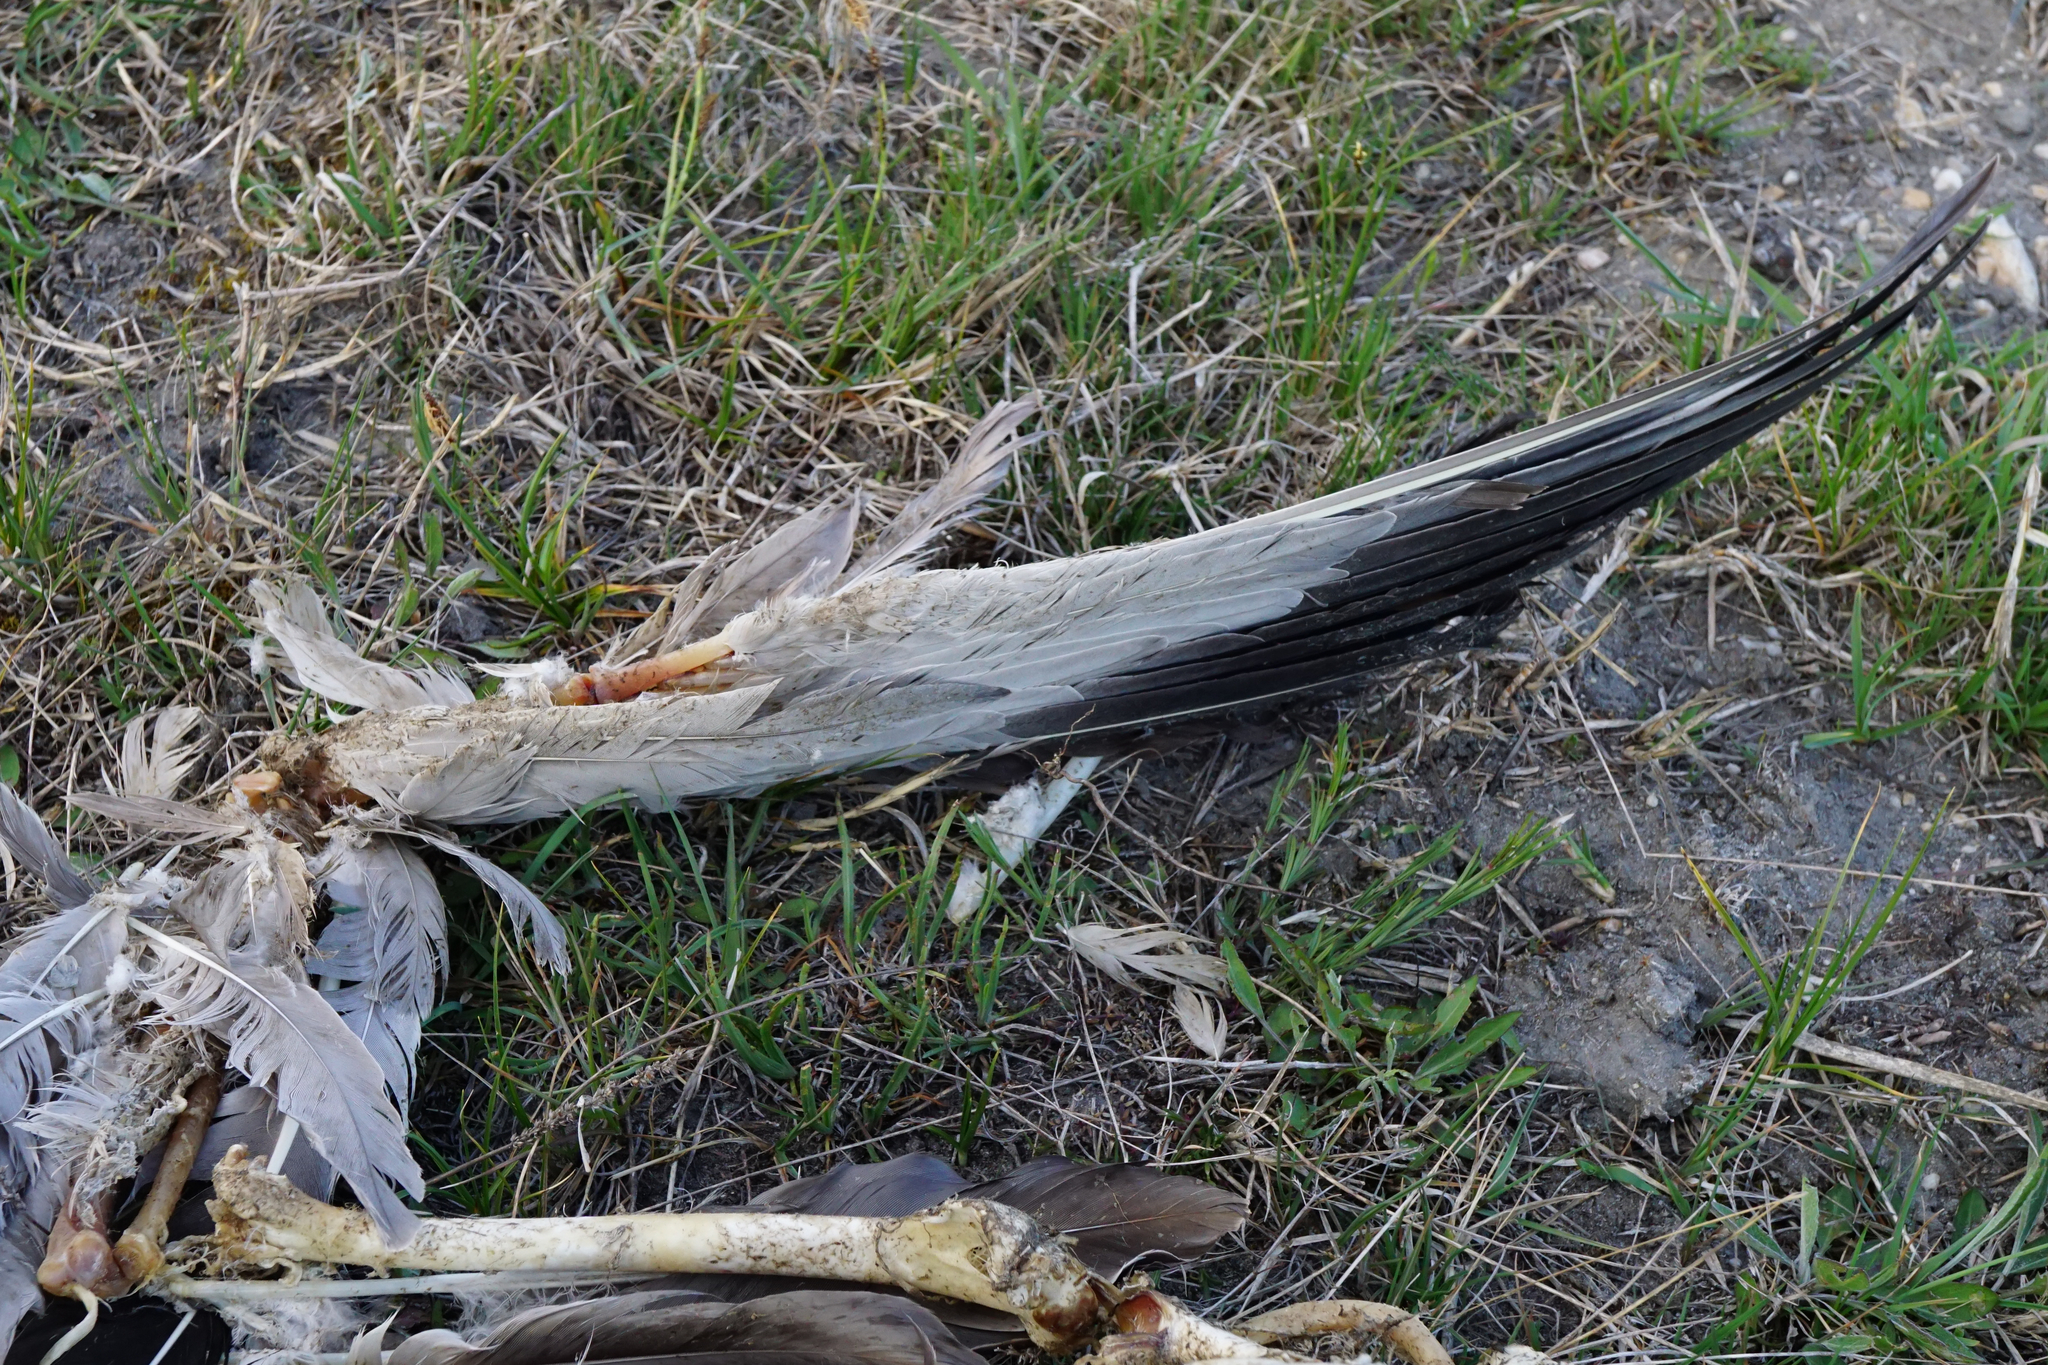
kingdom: Animalia
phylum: Chordata
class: Aves
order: Pelecaniformes
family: Ardeidae
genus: Ardea
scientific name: Ardea cinerea
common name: Grey heron
